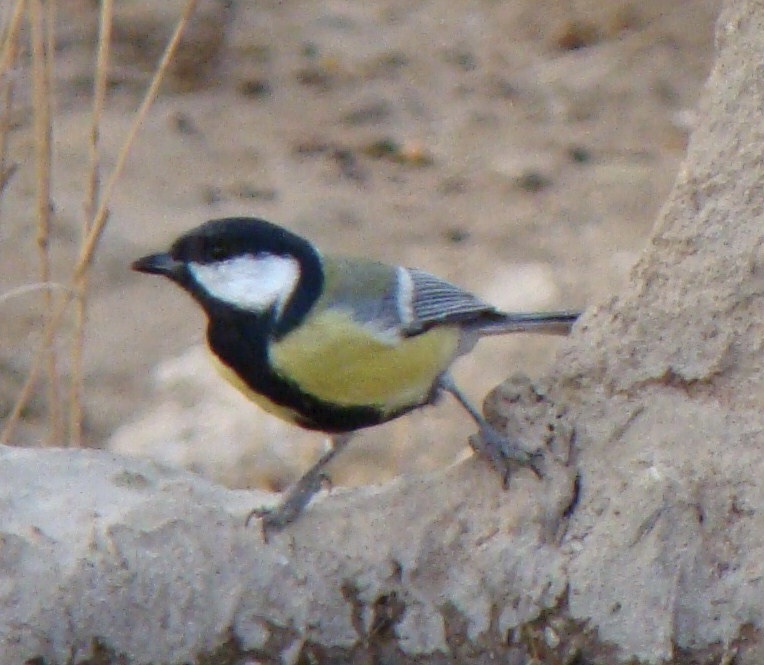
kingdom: Animalia
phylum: Chordata
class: Aves
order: Passeriformes
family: Paridae
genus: Parus
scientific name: Parus major
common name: Great tit
